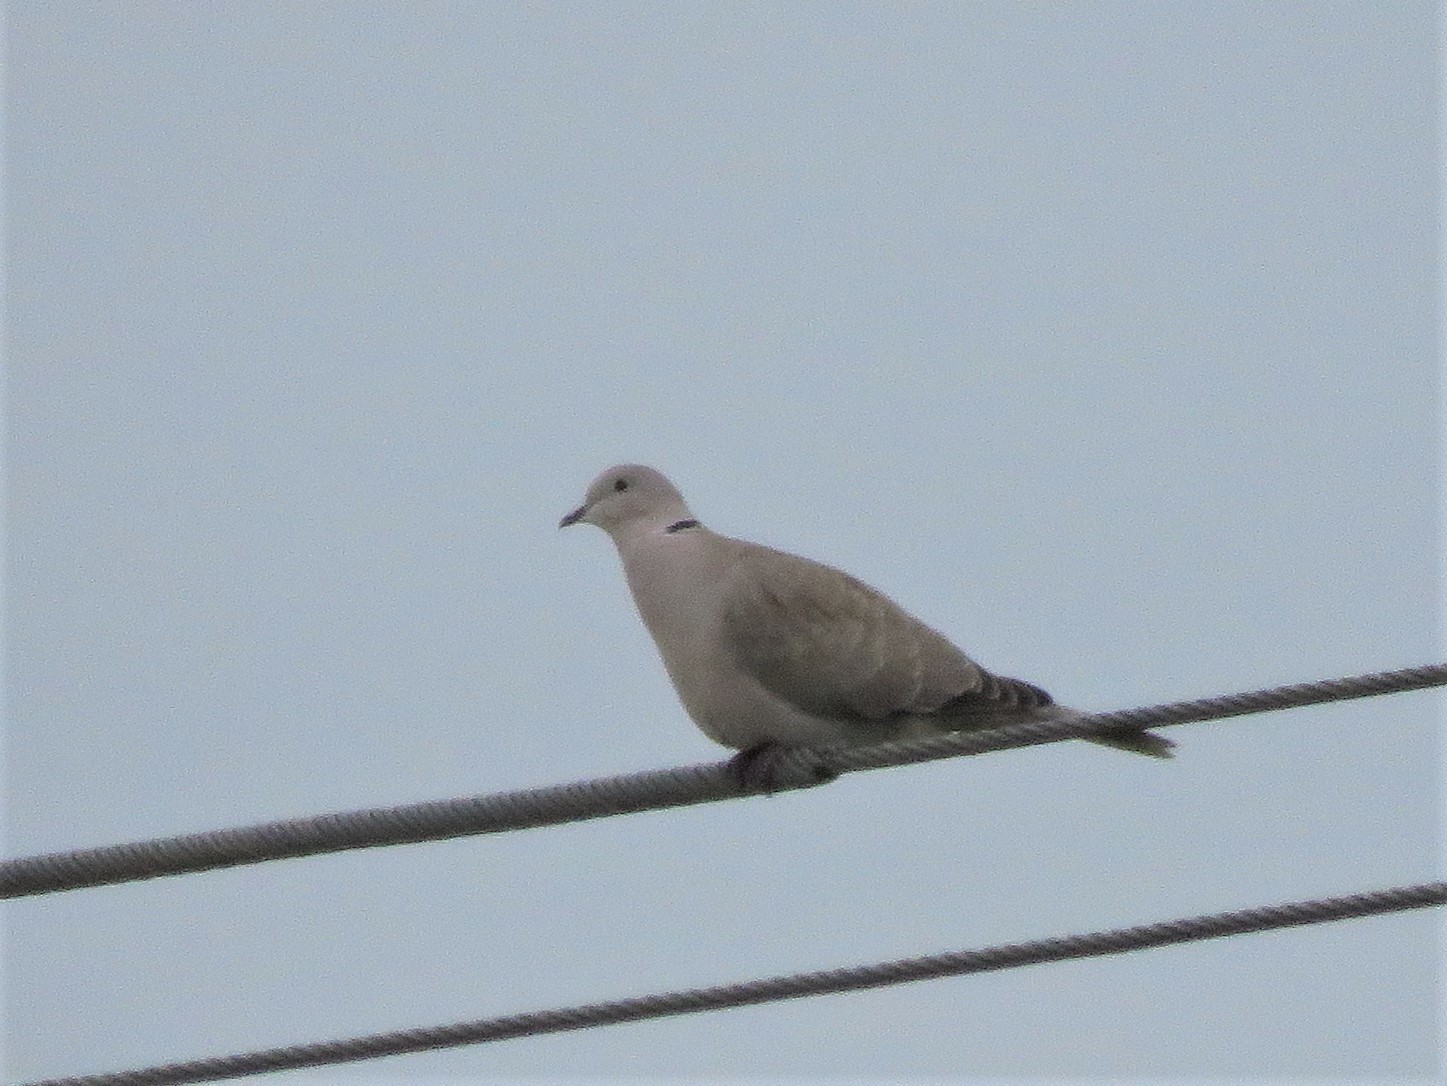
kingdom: Animalia
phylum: Chordata
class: Aves
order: Columbiformes
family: Columbidae
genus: Streptopelia
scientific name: Streptopelia decaocto
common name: Eurasian collared dove
